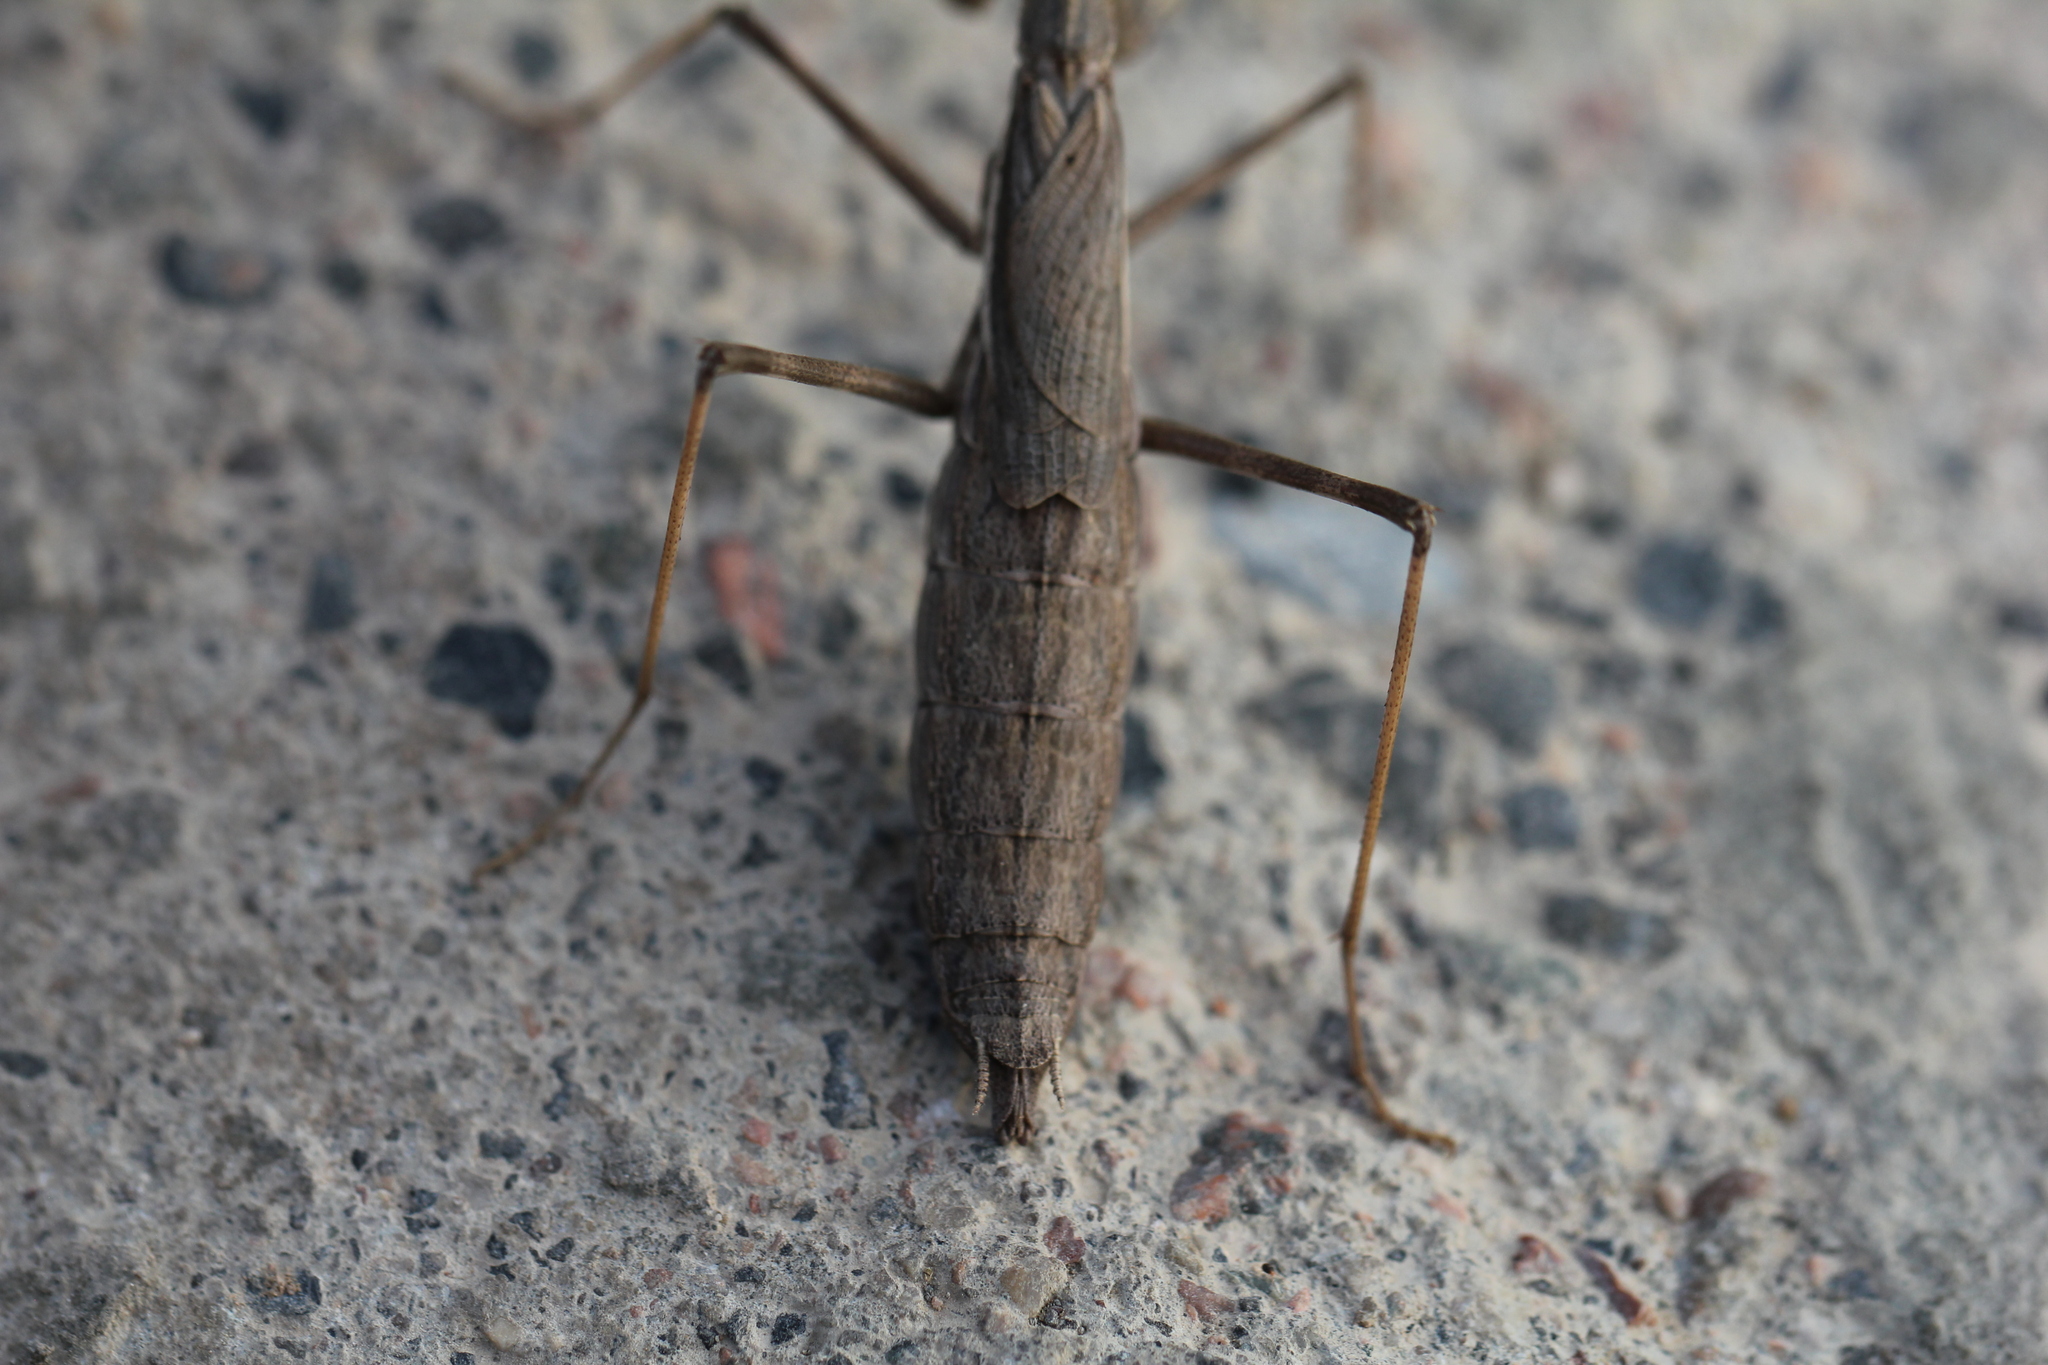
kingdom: Animalia
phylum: Arthropoda
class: Insecta
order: Mantodea
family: Rivetinidae
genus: Bolivaria
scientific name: Bolivaria brachyptera
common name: Bolivar's short winged mantis
